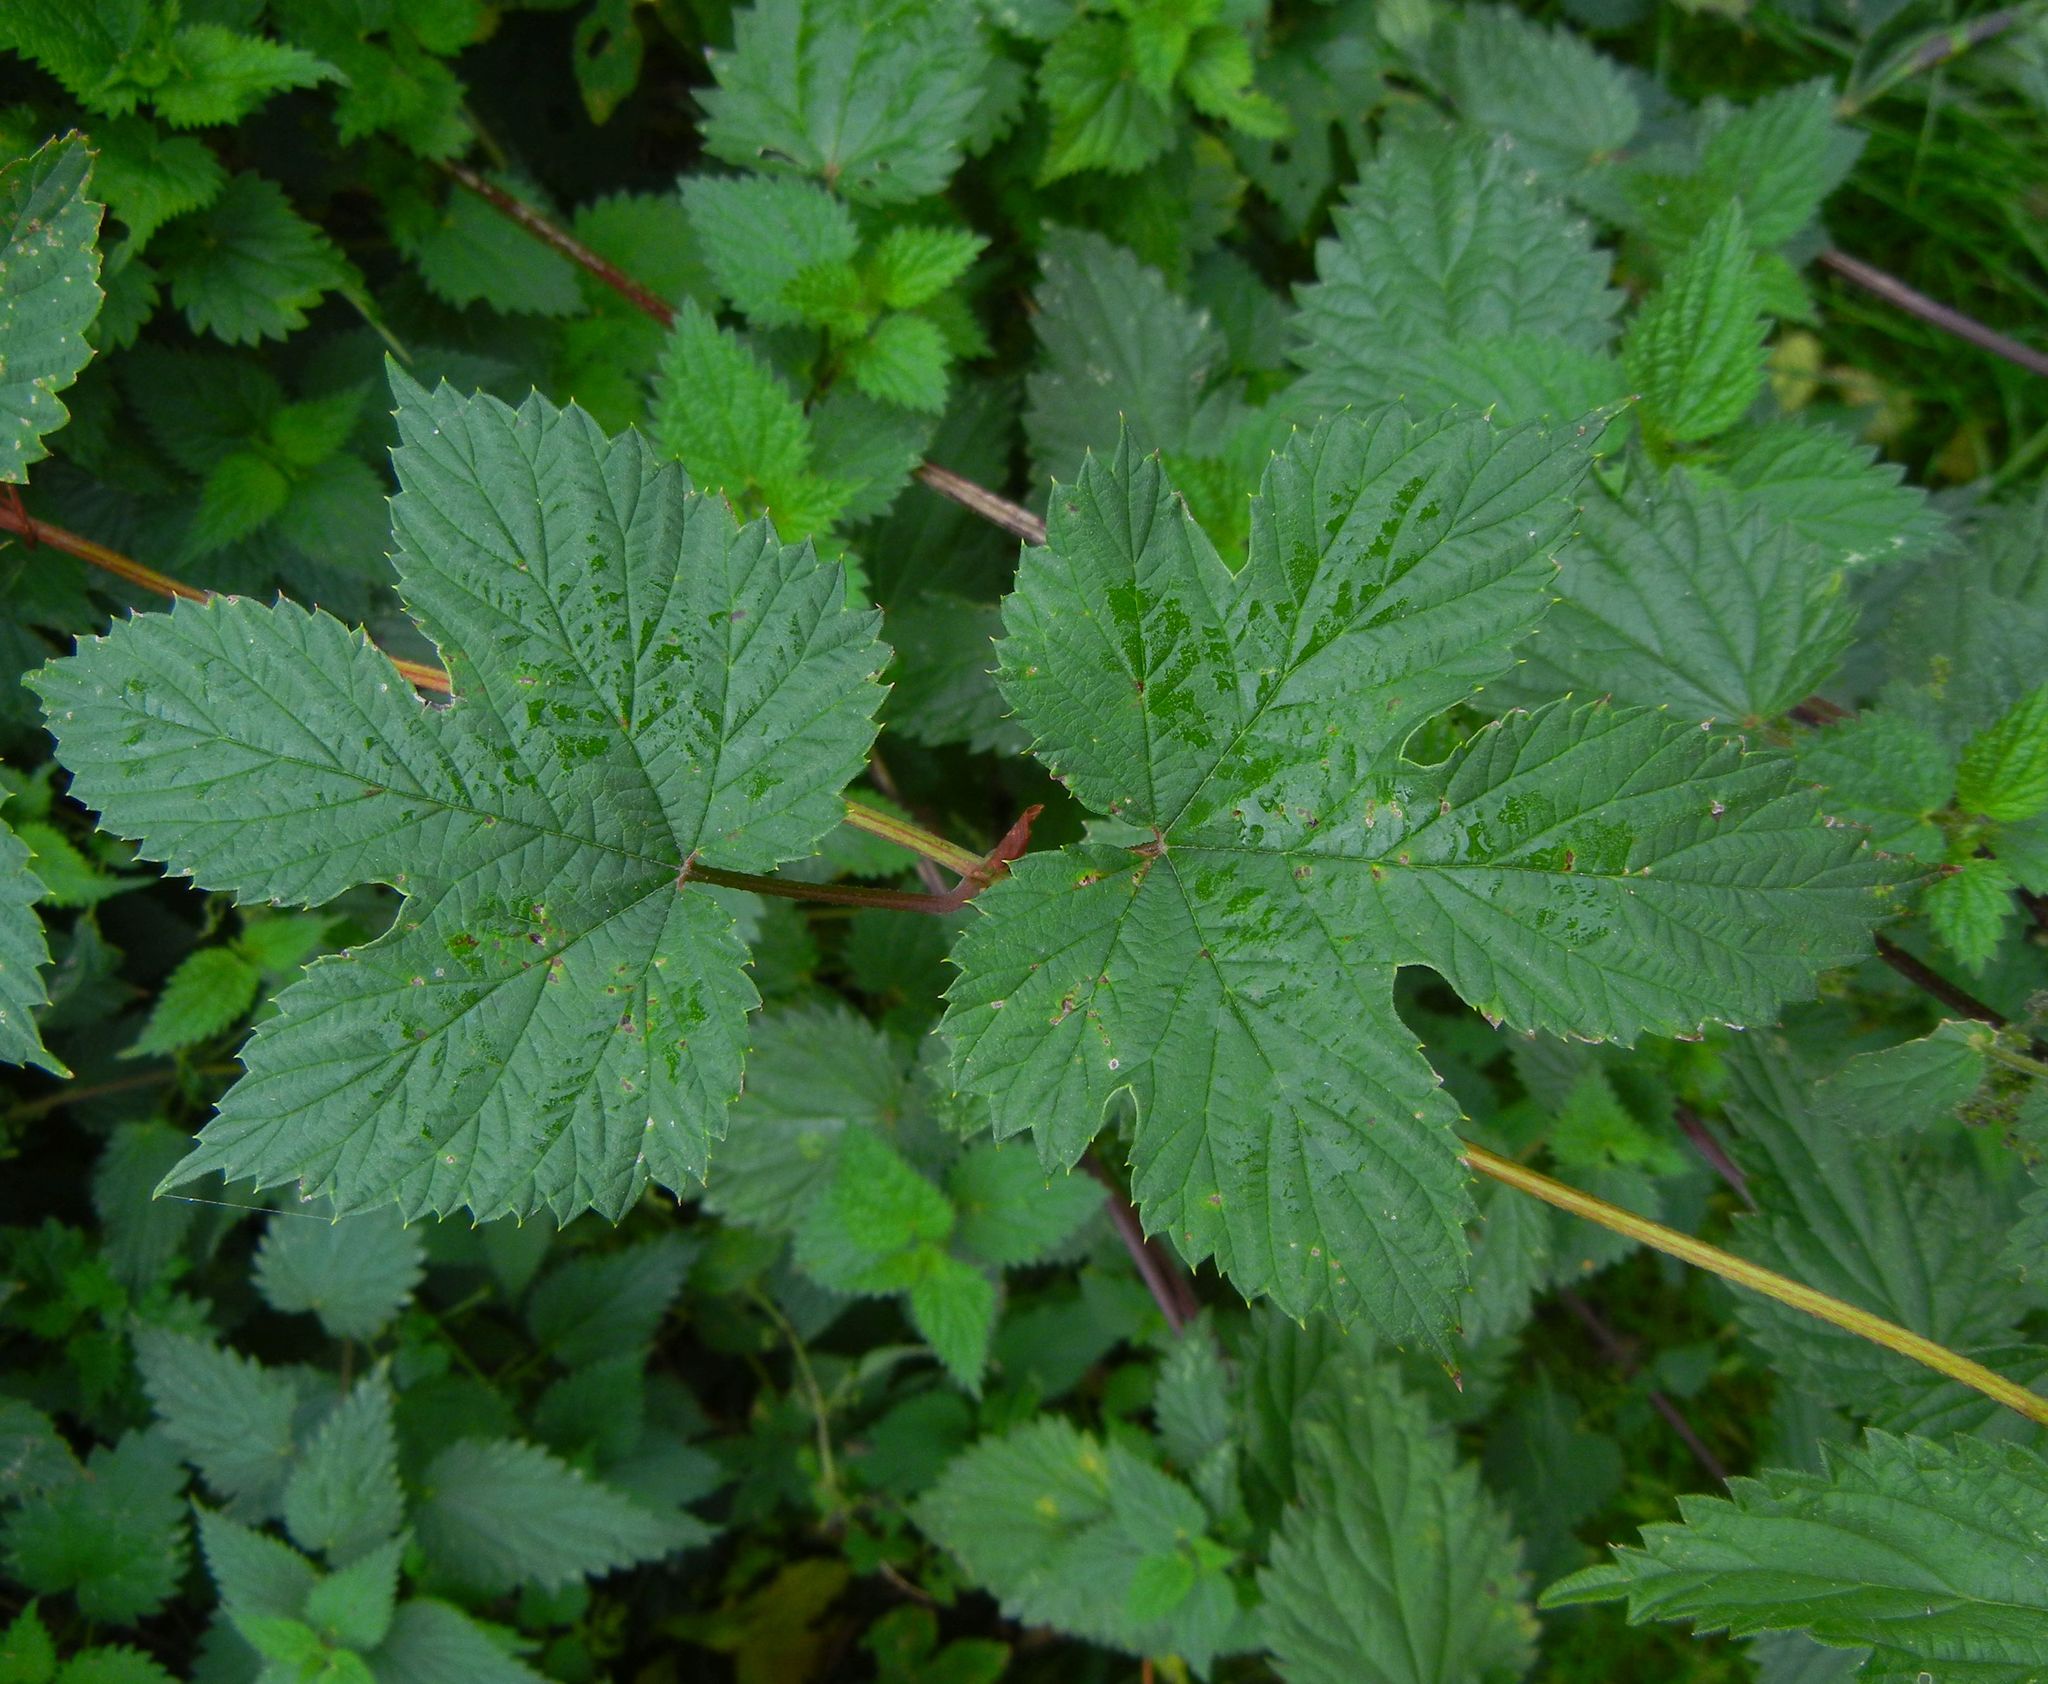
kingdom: Plantae
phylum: Tracheophyta
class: Magnoliopsida
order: Rosales
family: Cannabaceae
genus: Humulus
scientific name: Humulus lupulus
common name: Hop
